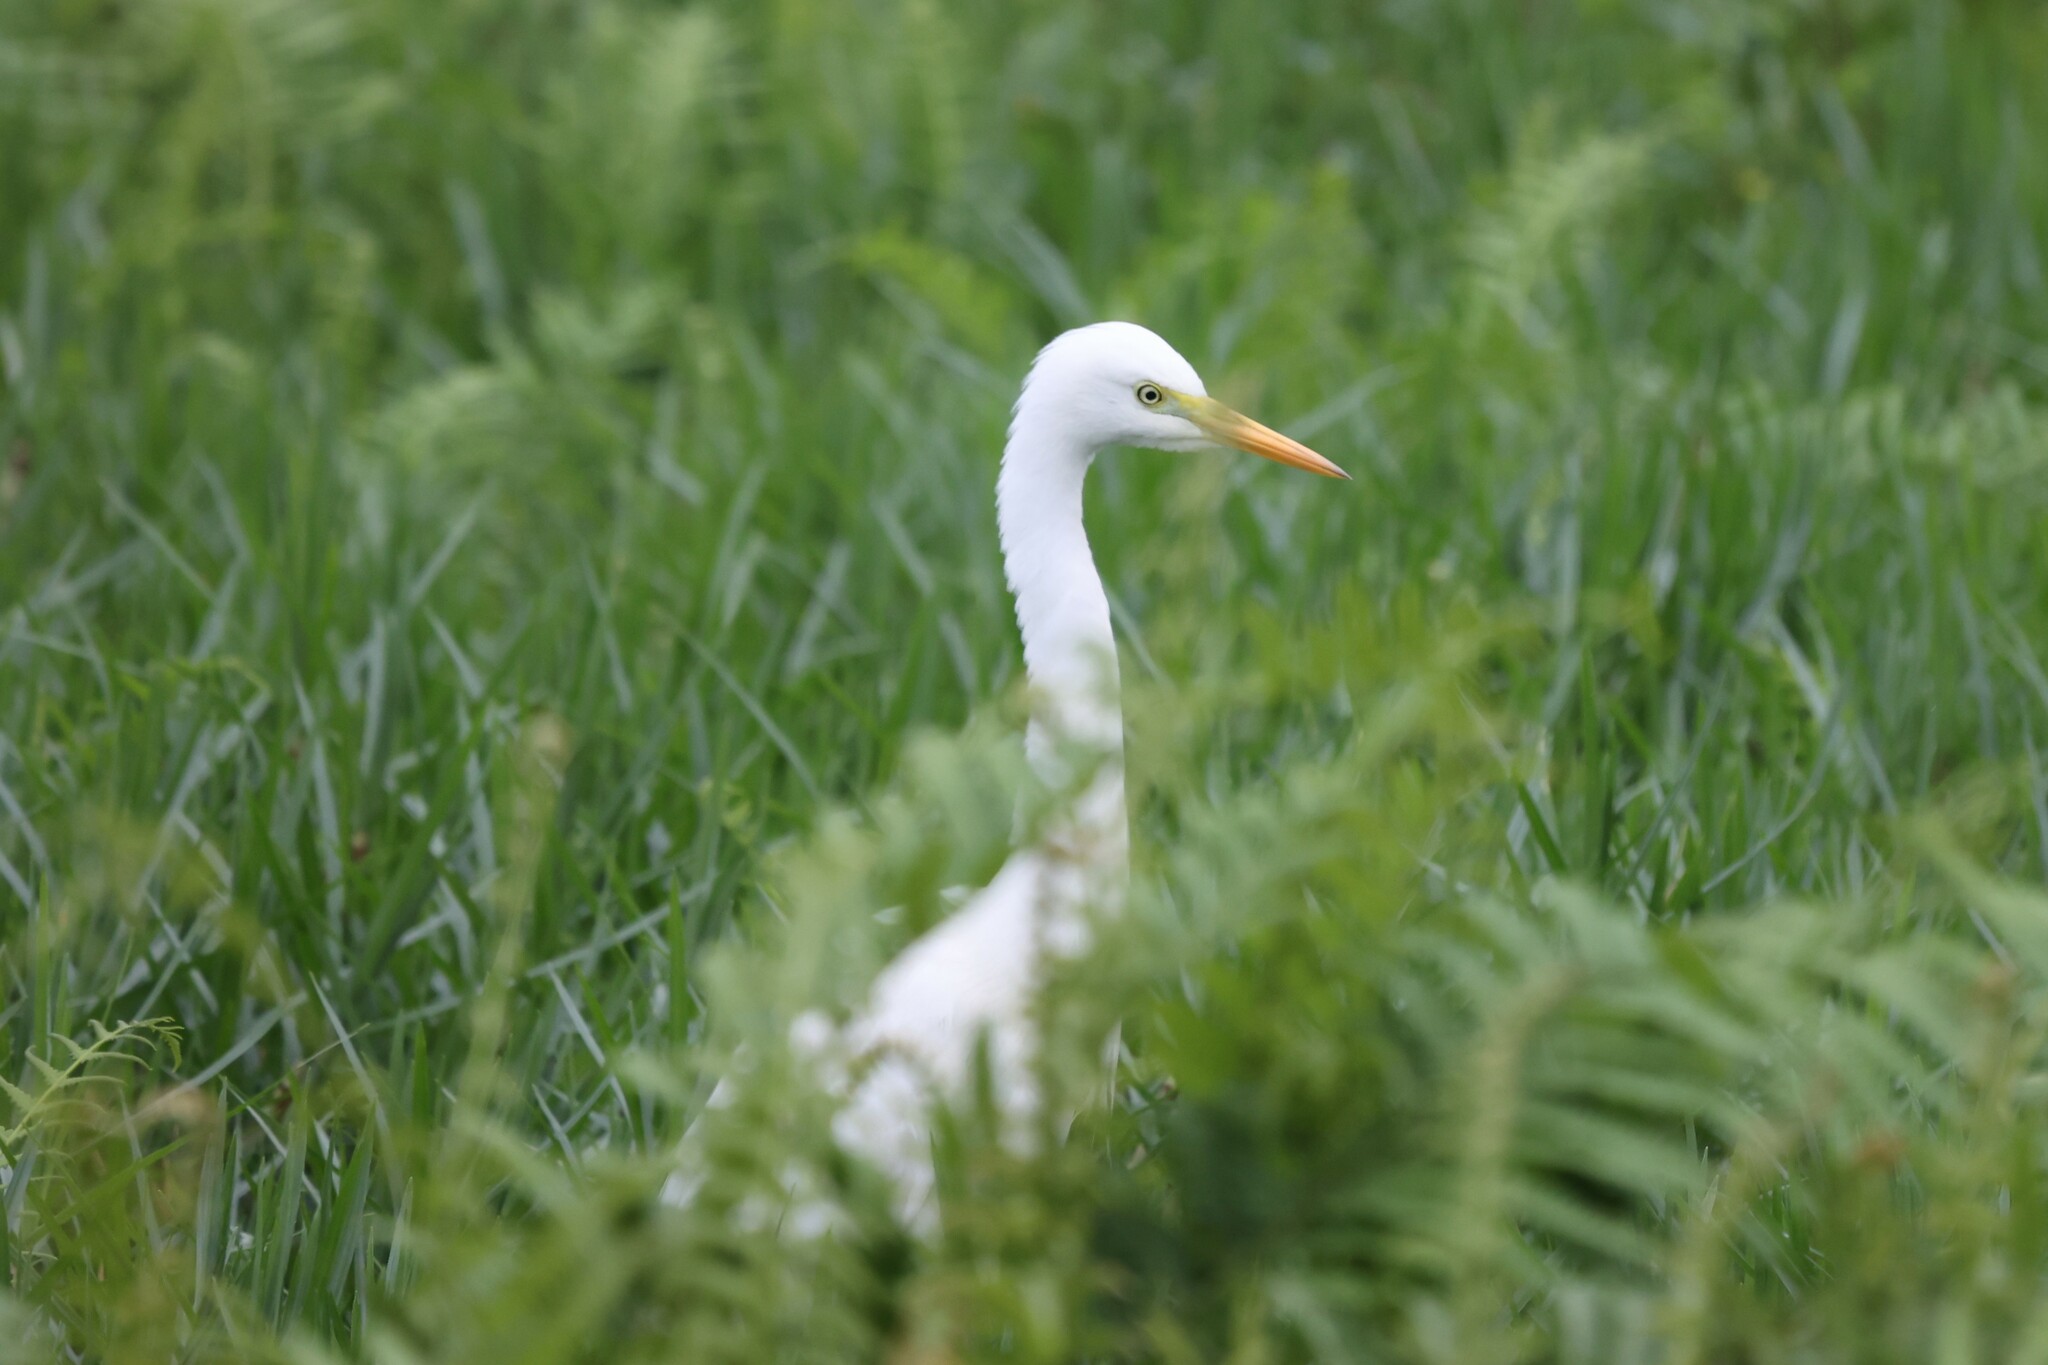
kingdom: Animalia
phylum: Chordata
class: Aves
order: Pelecaniformes
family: Ardeidae
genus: Egretta
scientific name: Egretta intermedia
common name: Intermediate egret
